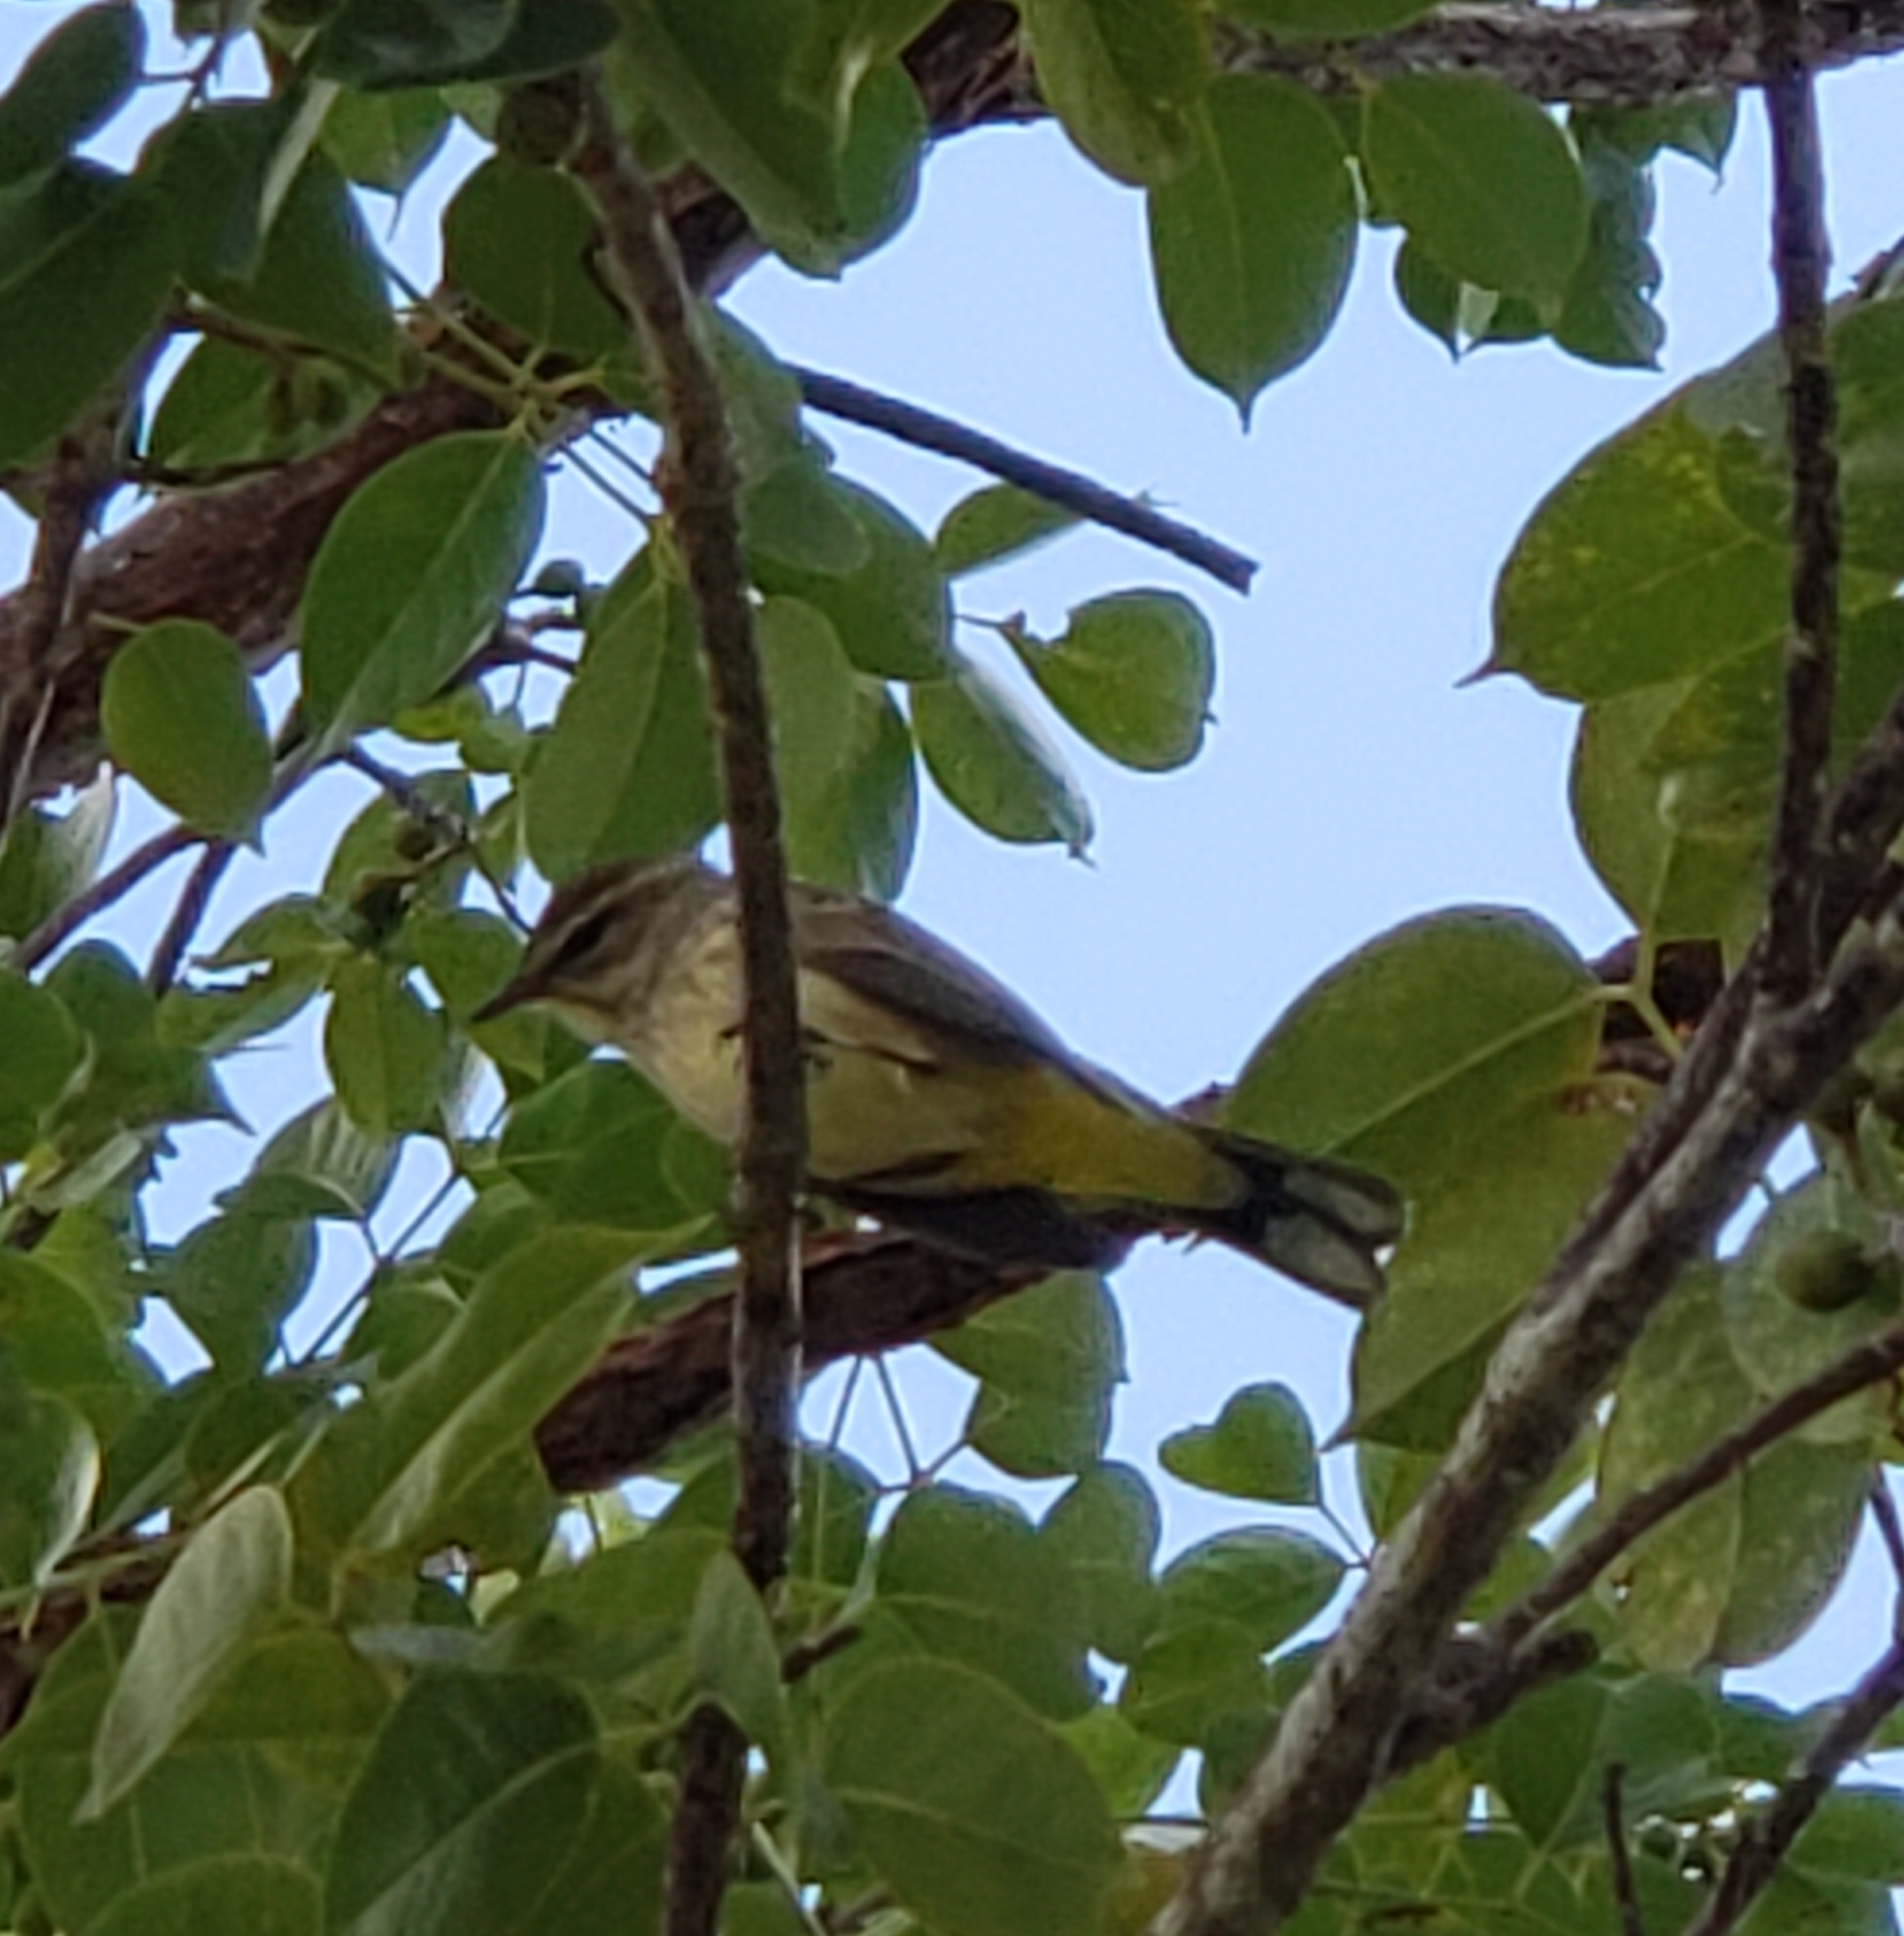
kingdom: Animalia
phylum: Chordata
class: Aves
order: Passeriformes
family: Parulidae
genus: Setophaga
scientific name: Setophaga palmarum
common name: Palm warbler
